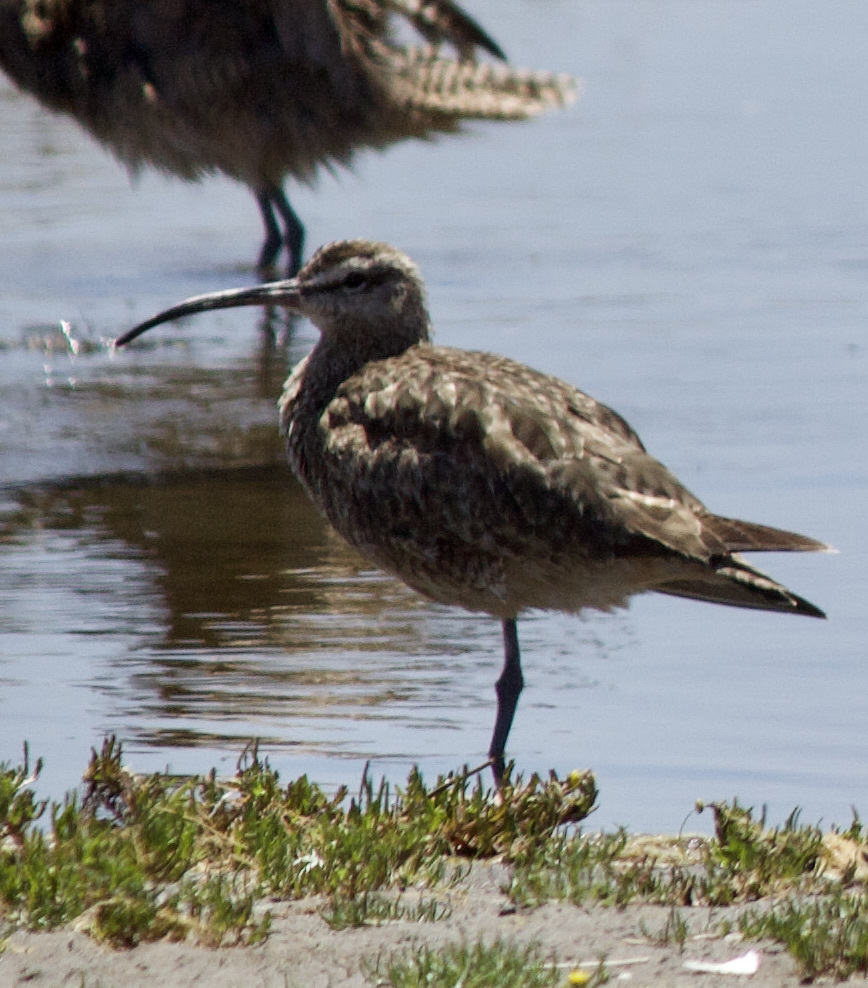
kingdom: Animalia
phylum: Chordata
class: Aves
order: Charadriiformes
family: Scolopacidae
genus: Numenius
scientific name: Numenius phaeopus
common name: Whimbrel
